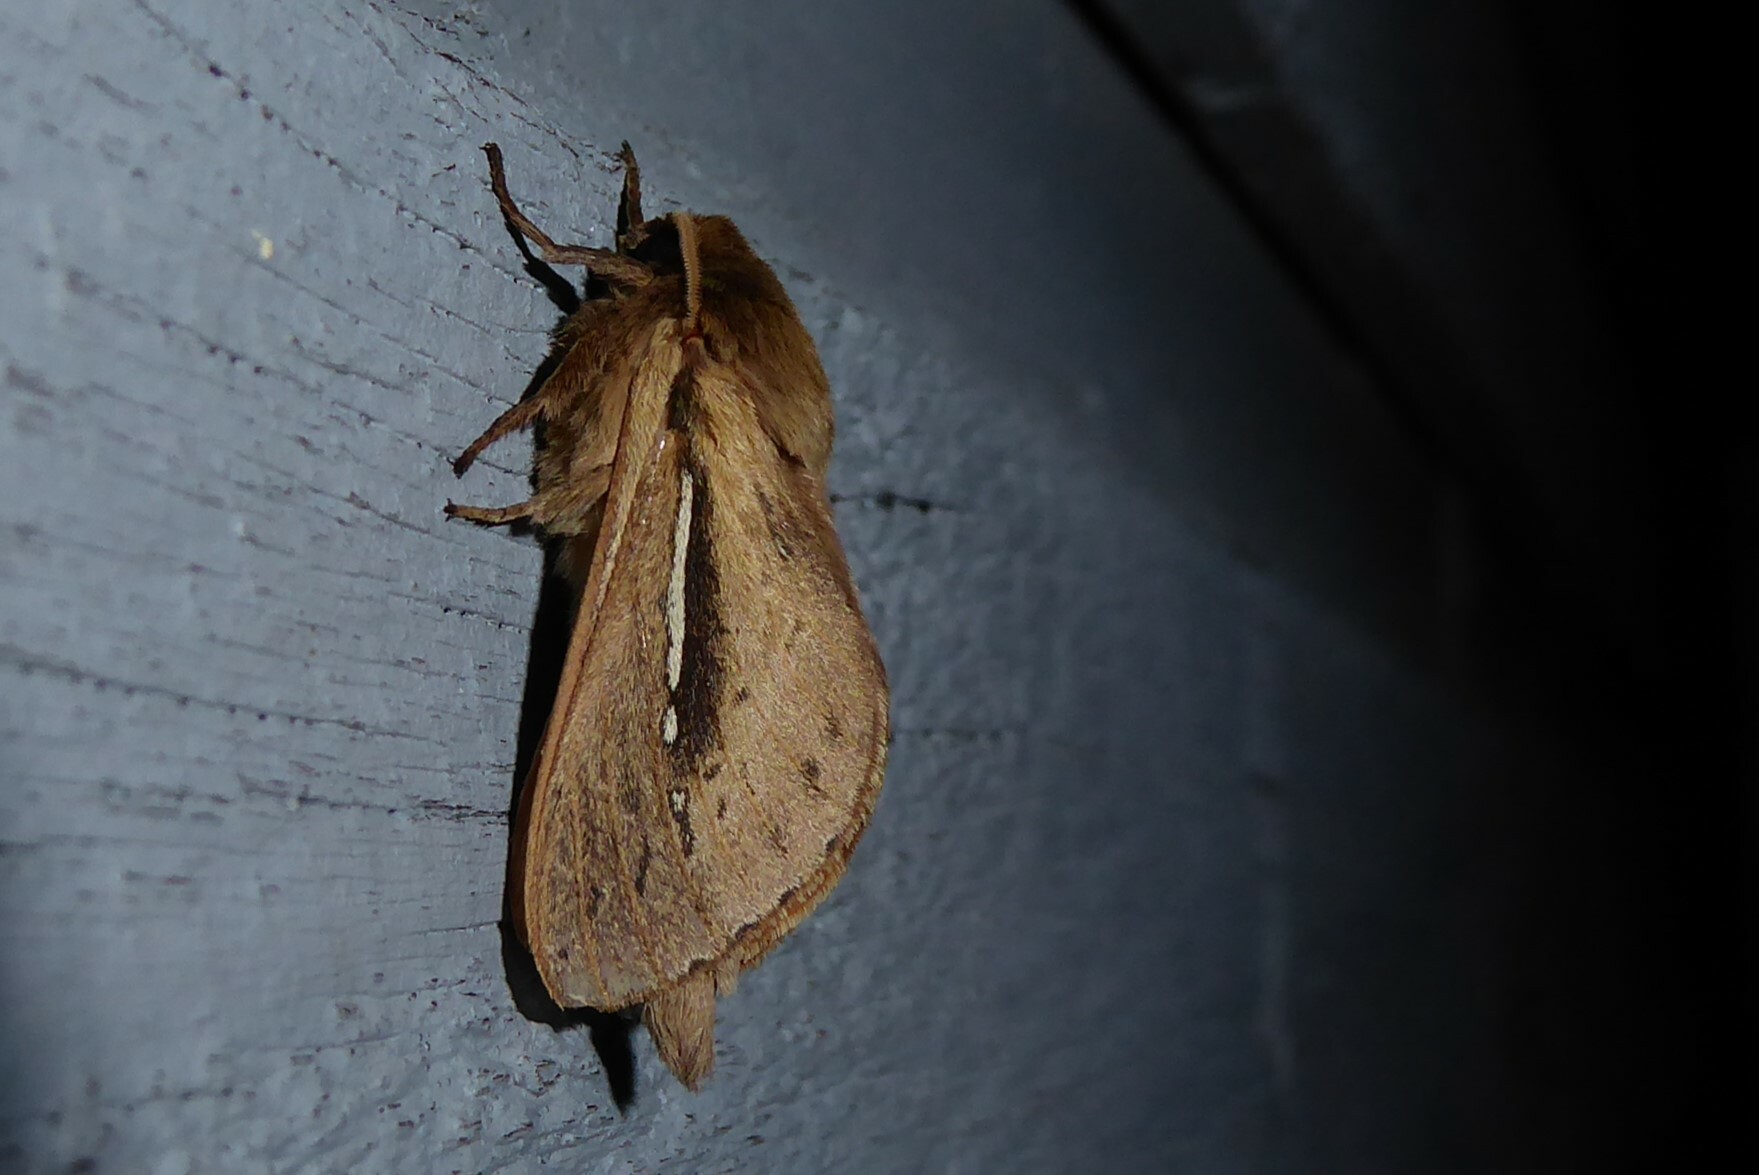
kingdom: Animalia
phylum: Arthropoda
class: Insecta
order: Lepidoptera
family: Hepialidae
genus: Wiseana
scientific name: Wiseana umbraculatus
